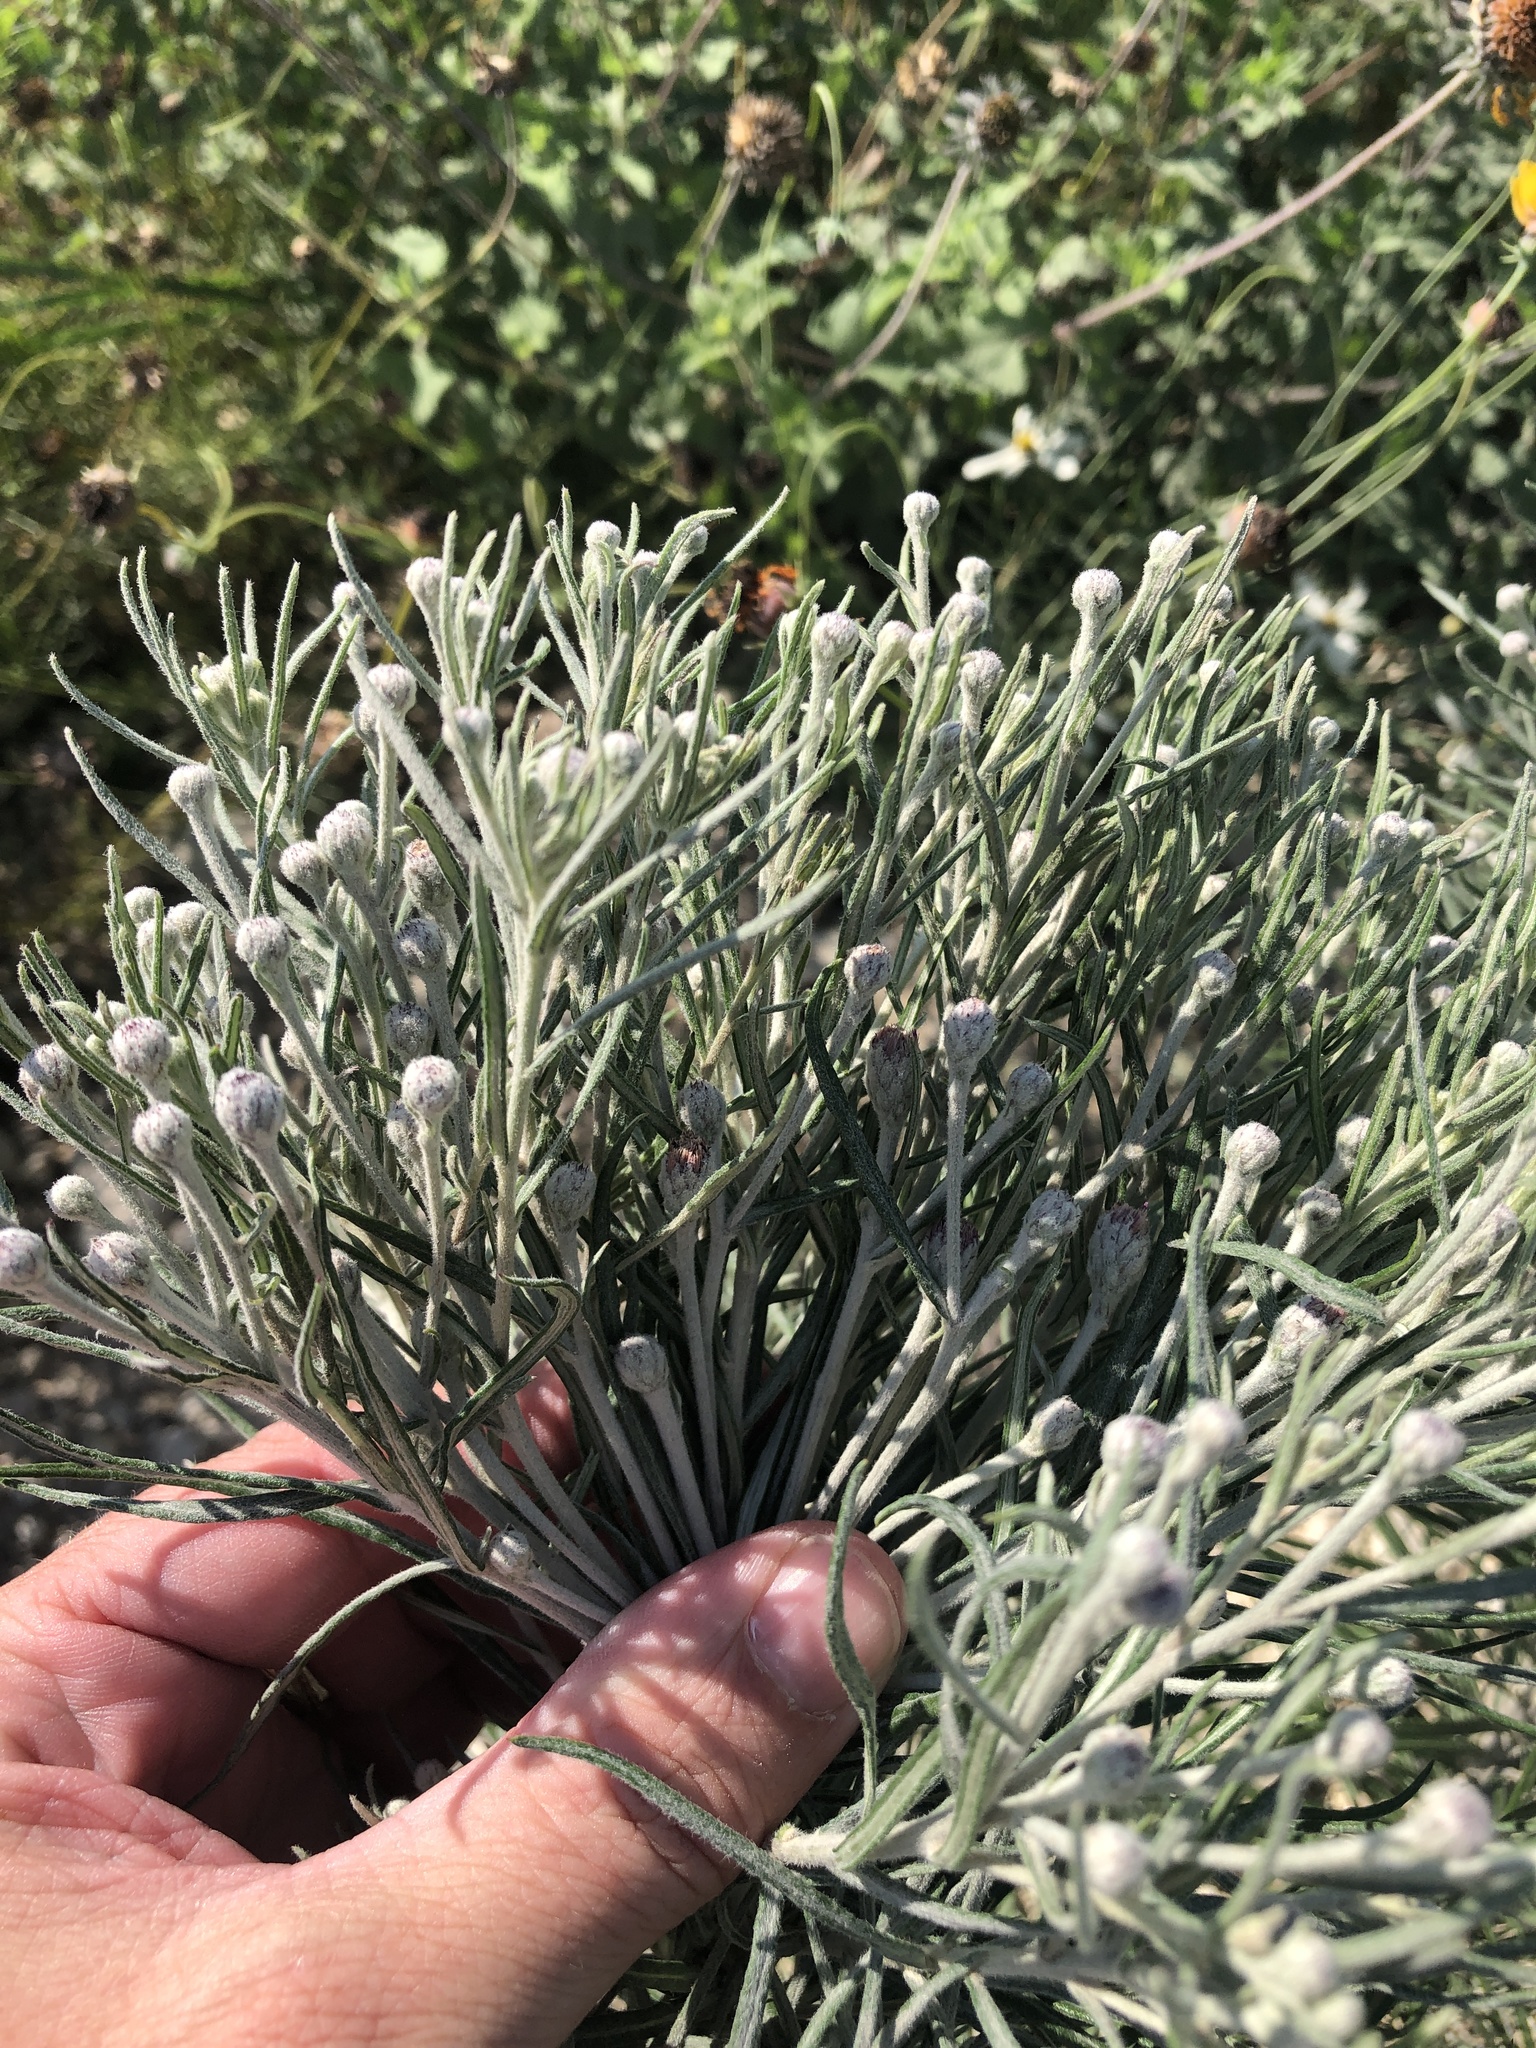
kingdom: Plantae
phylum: Tracheophyta
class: Magnoliopsida
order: Asterales
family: Asteraceae
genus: Vernonia
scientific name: Vernonia lindheimeri
